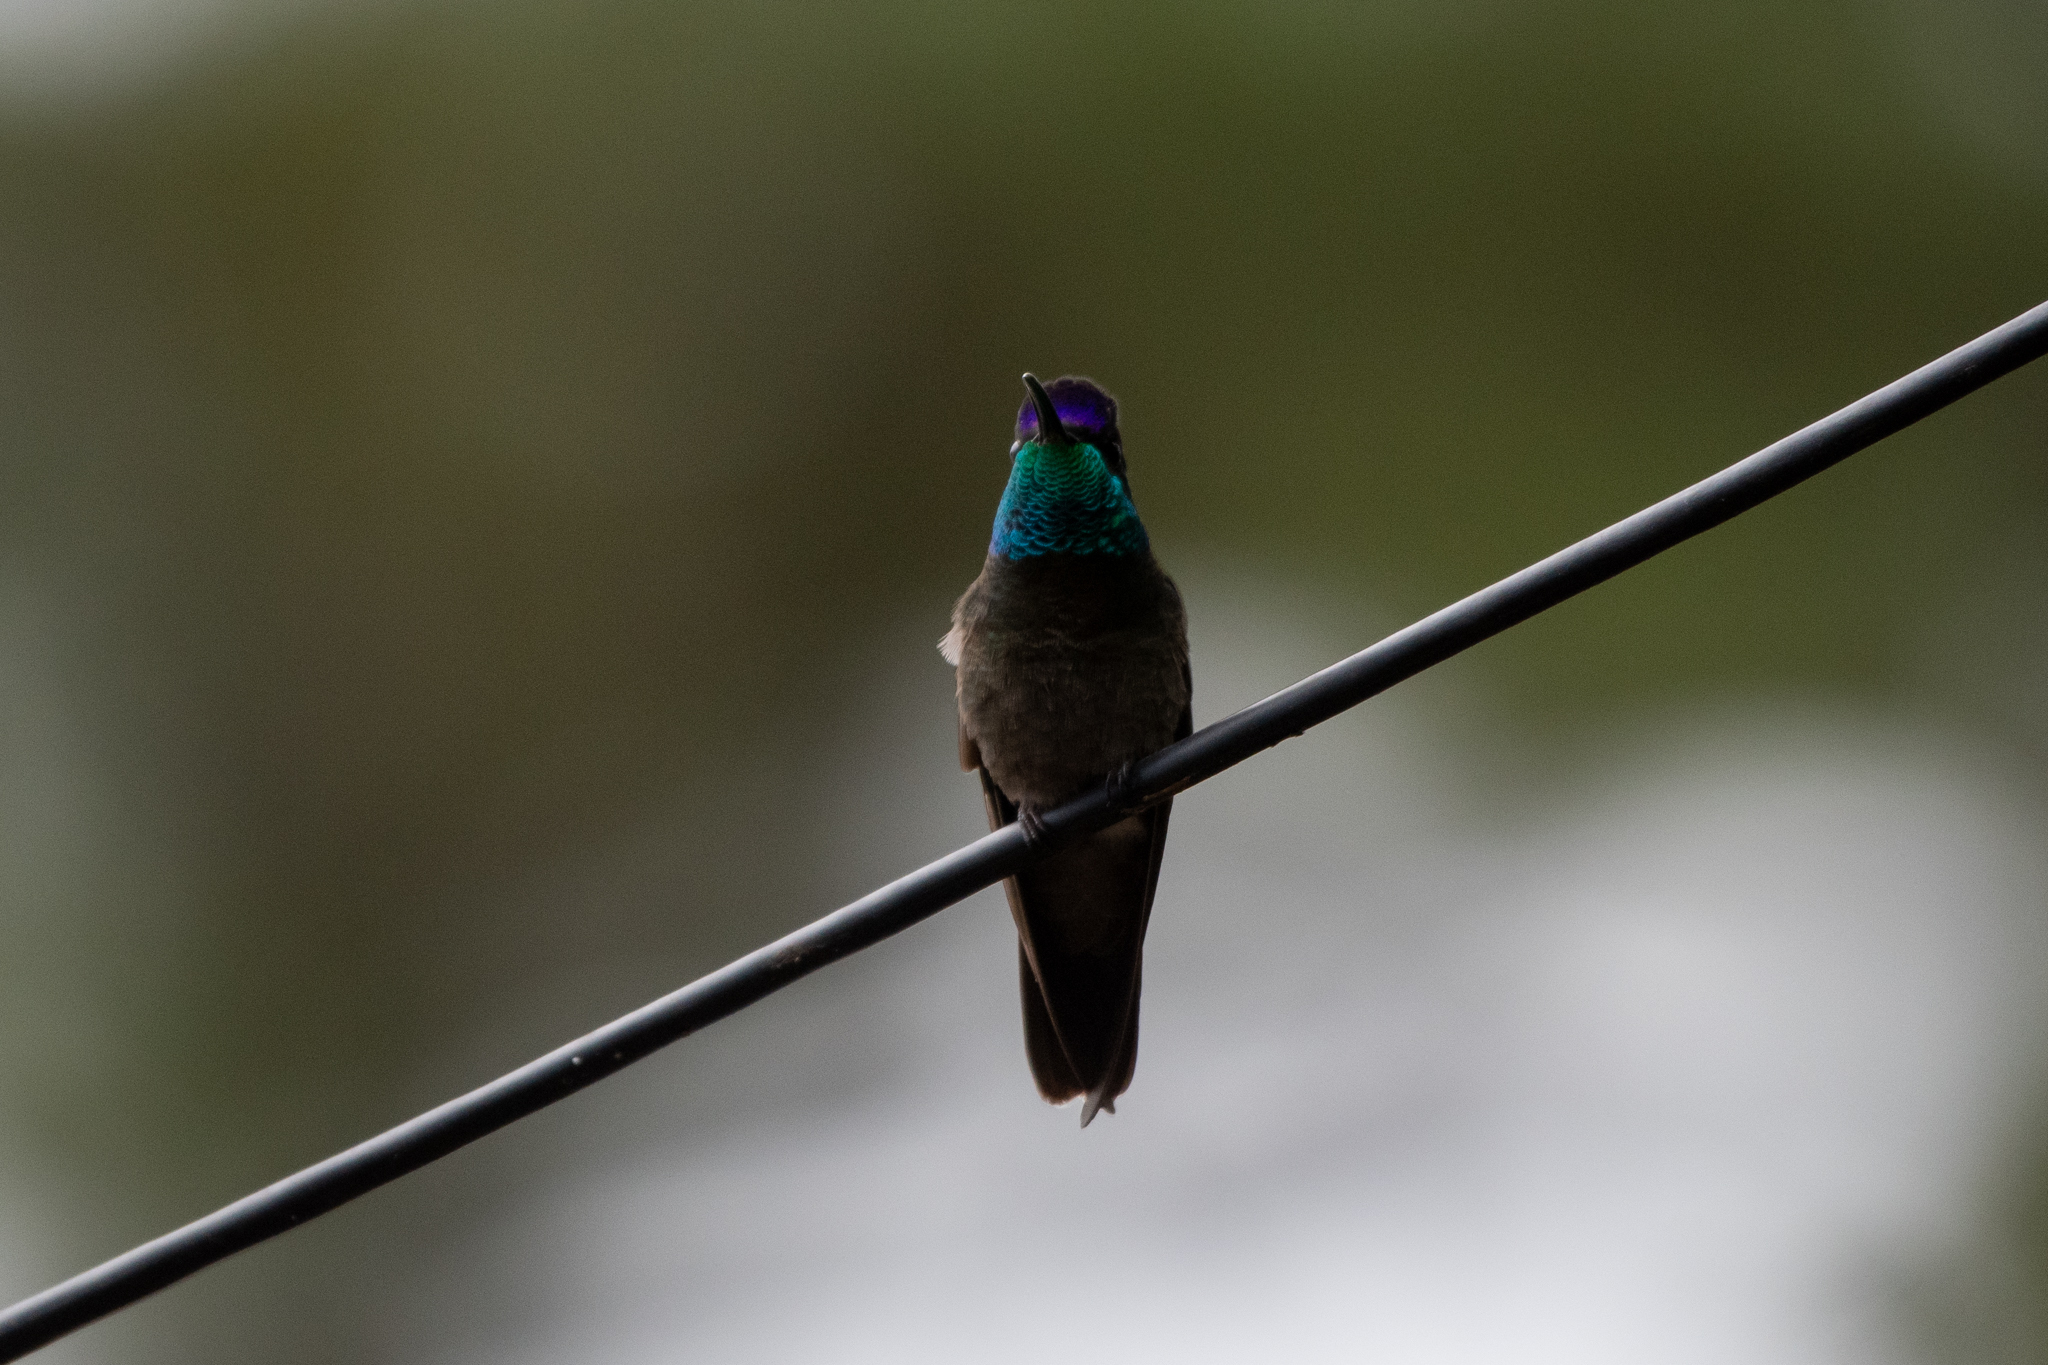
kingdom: Animalia
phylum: Chordata
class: Aves
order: Apodiformes
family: Trochilidae
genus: Eugenes
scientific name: Eugenes fulgens
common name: Magnificent hummingbird
